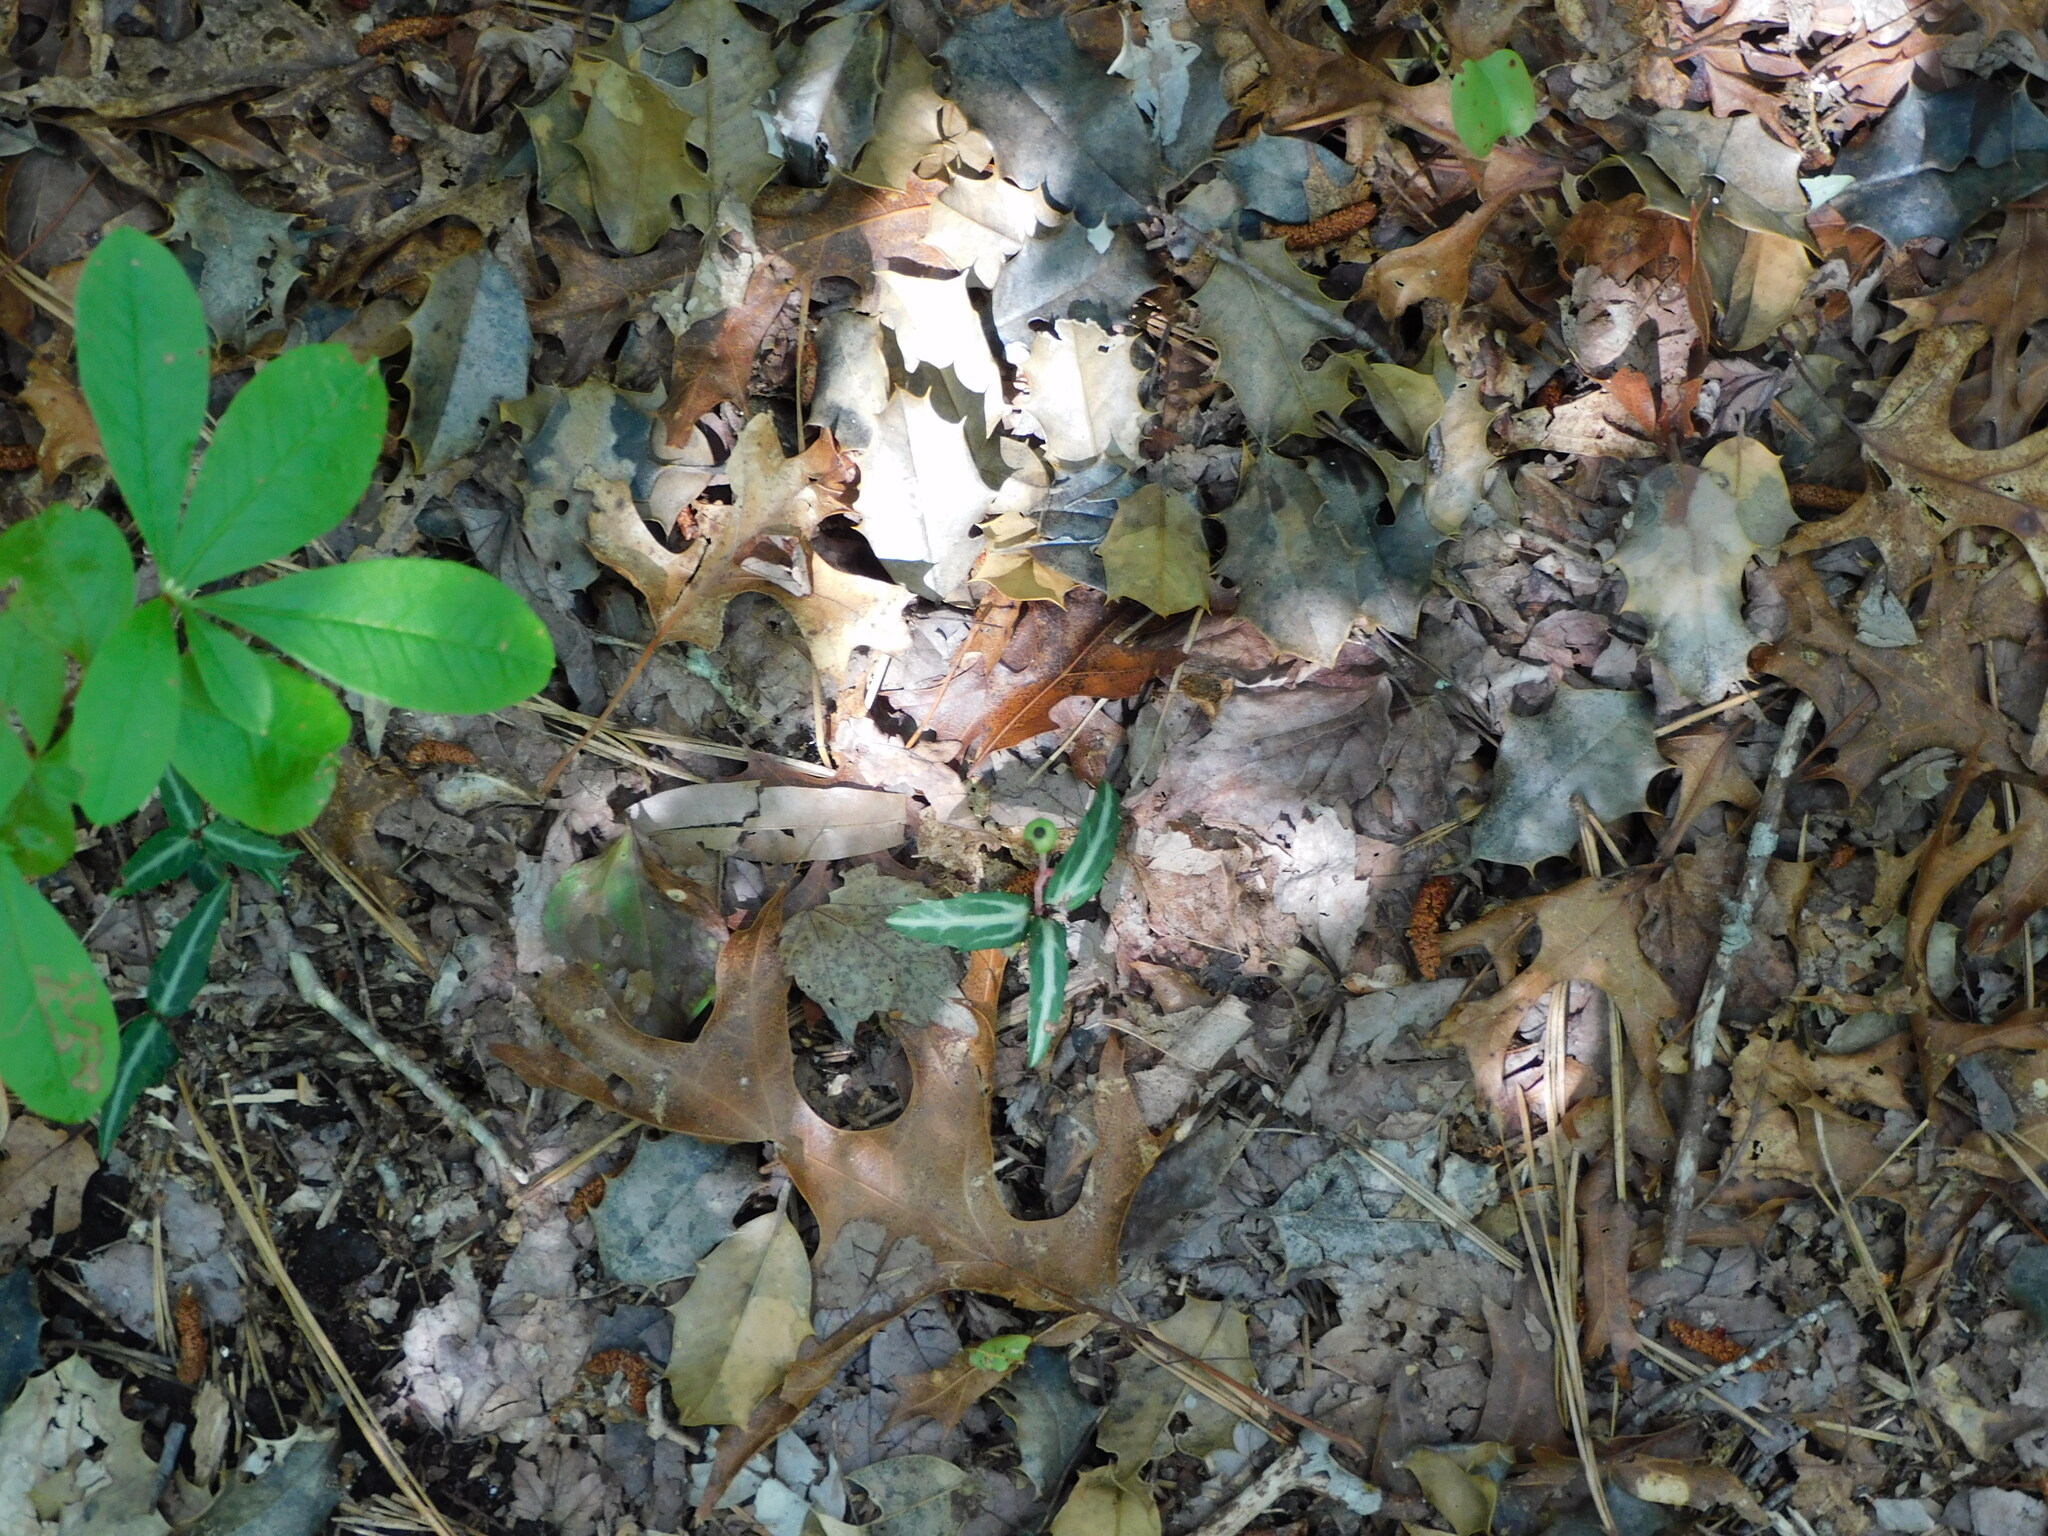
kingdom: Plantae
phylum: Tracheophyta
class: Magnoliopsida
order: Ericales
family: Ericaceae
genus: Chimaphila
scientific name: Chimaphila maculata
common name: Spotted pipsissewa
